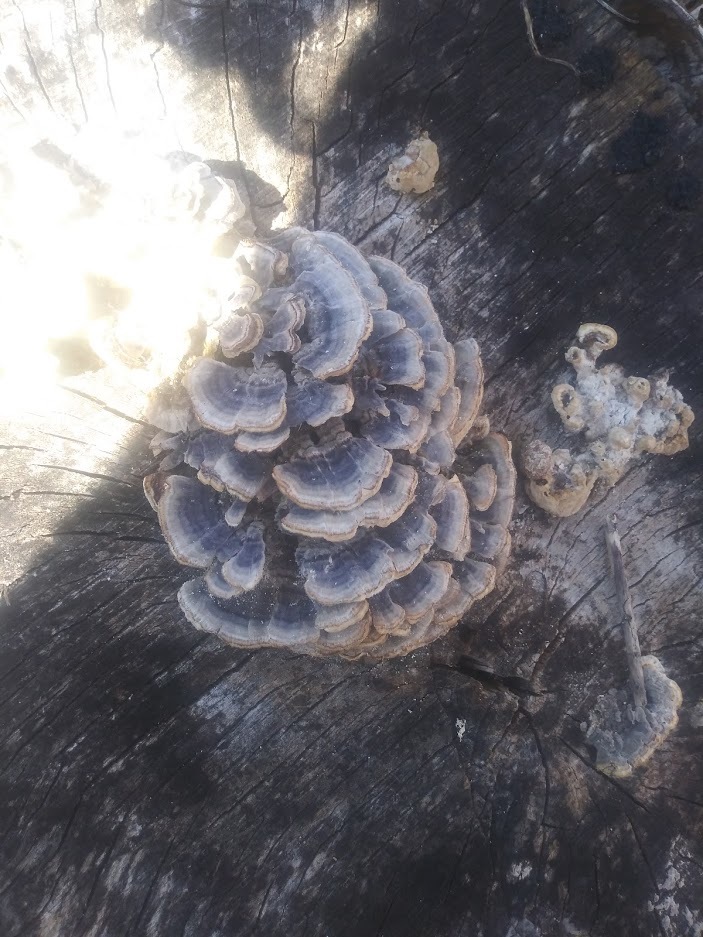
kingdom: Fungi
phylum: Basidiomycota
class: Agaricomycetes
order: Polyporales
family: Polyporaceae
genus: Trametes
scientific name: Trametes versicolor
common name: Turkeytail
